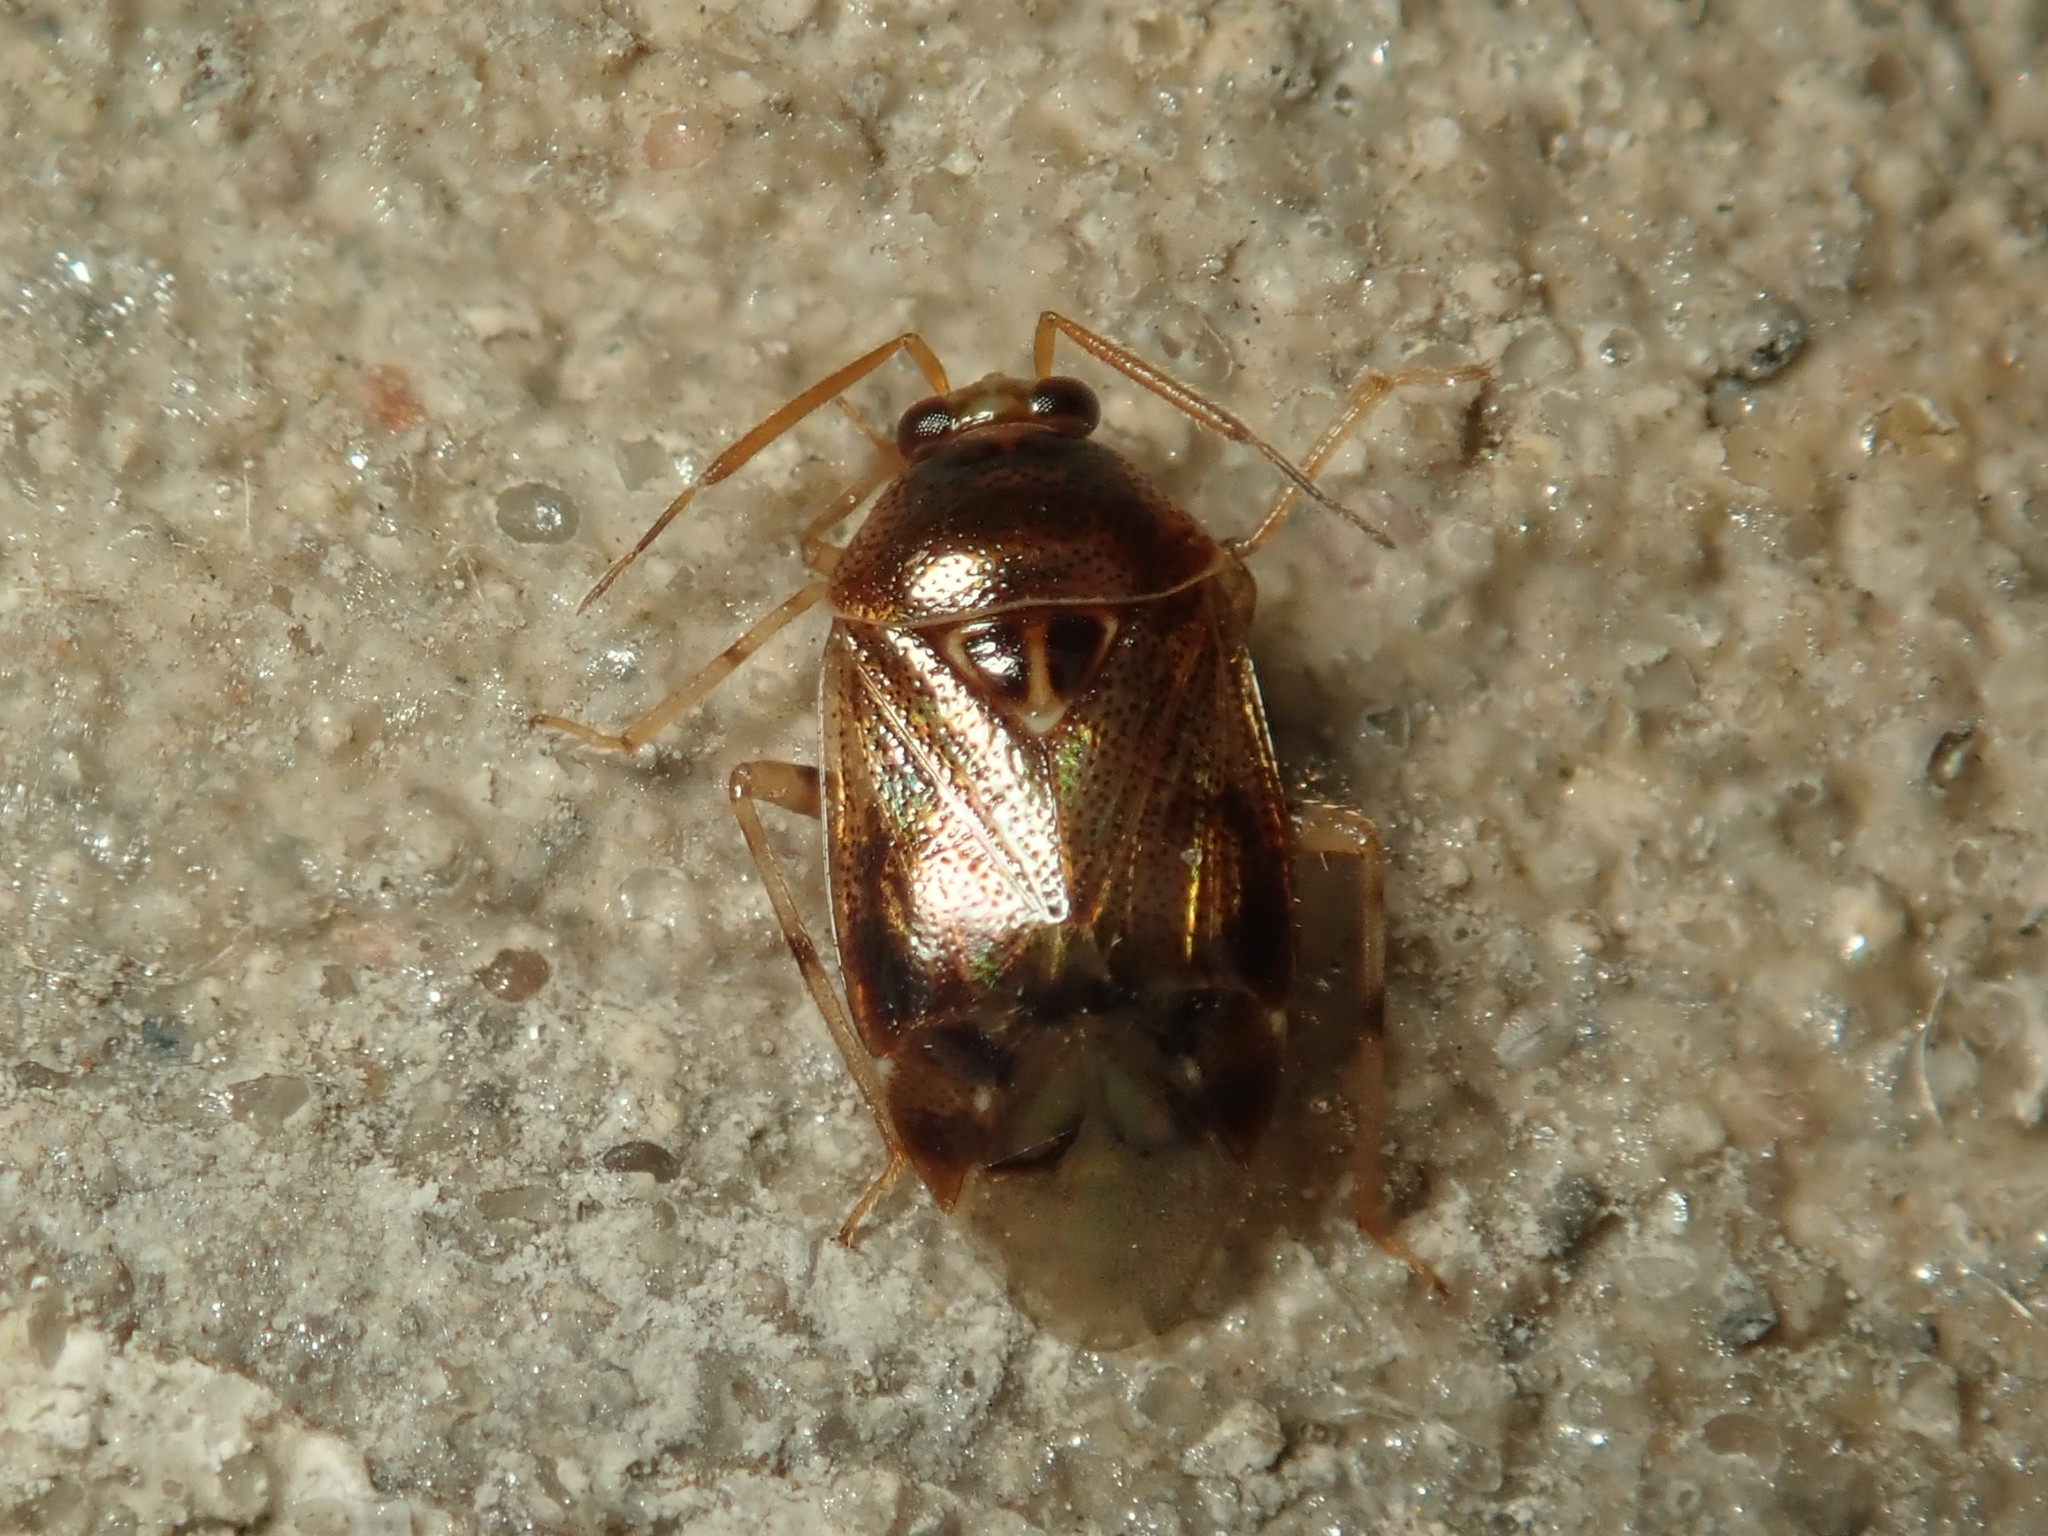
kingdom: Animalia
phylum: Arthropoda
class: Insecta
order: Hemiptera
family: Miridae
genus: Deraeocoris
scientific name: Deraeocoris lutescens
